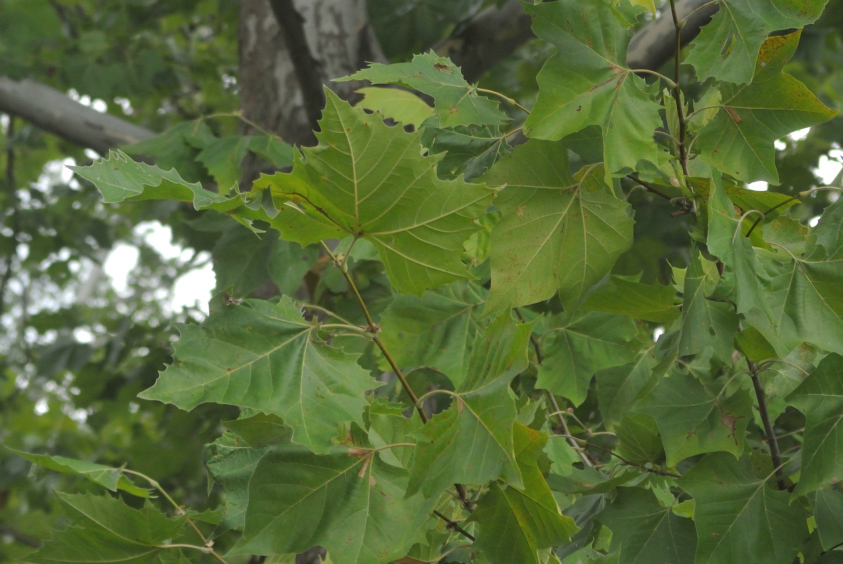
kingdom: Plantae
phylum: Tracheophyta
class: Magnoliopsida
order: Proteales
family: Platanaceae
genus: Platanus
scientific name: Platanus occidentalis
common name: American sycamore
